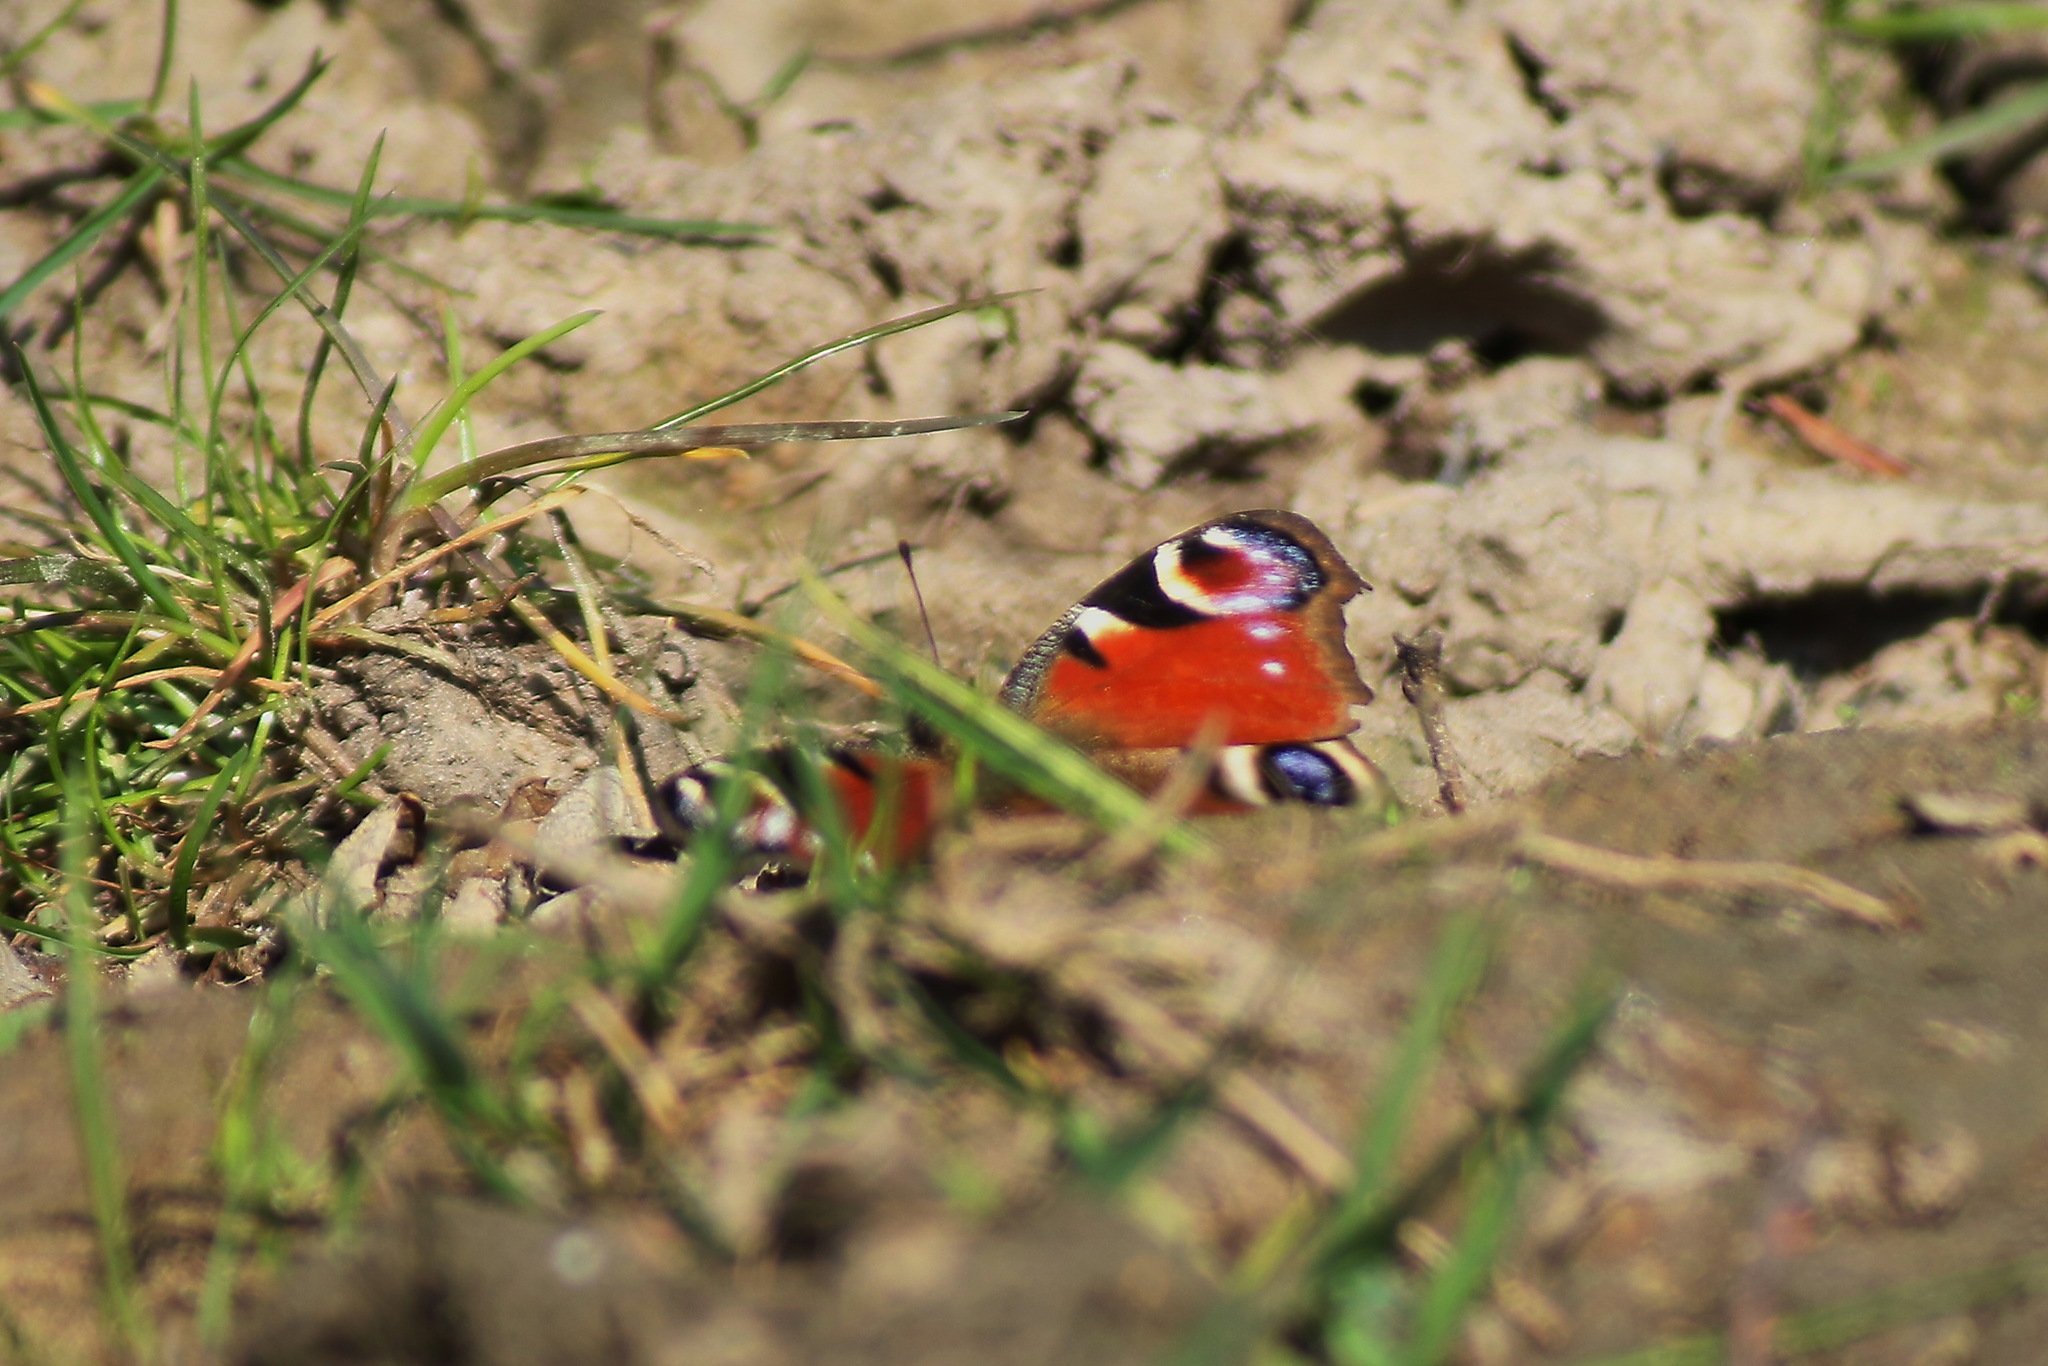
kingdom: Animalia
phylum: Arthropoda
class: Insecta
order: Lepidoptera
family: Nymphalidae
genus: Aglais
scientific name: Aglais io
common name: Peacock
